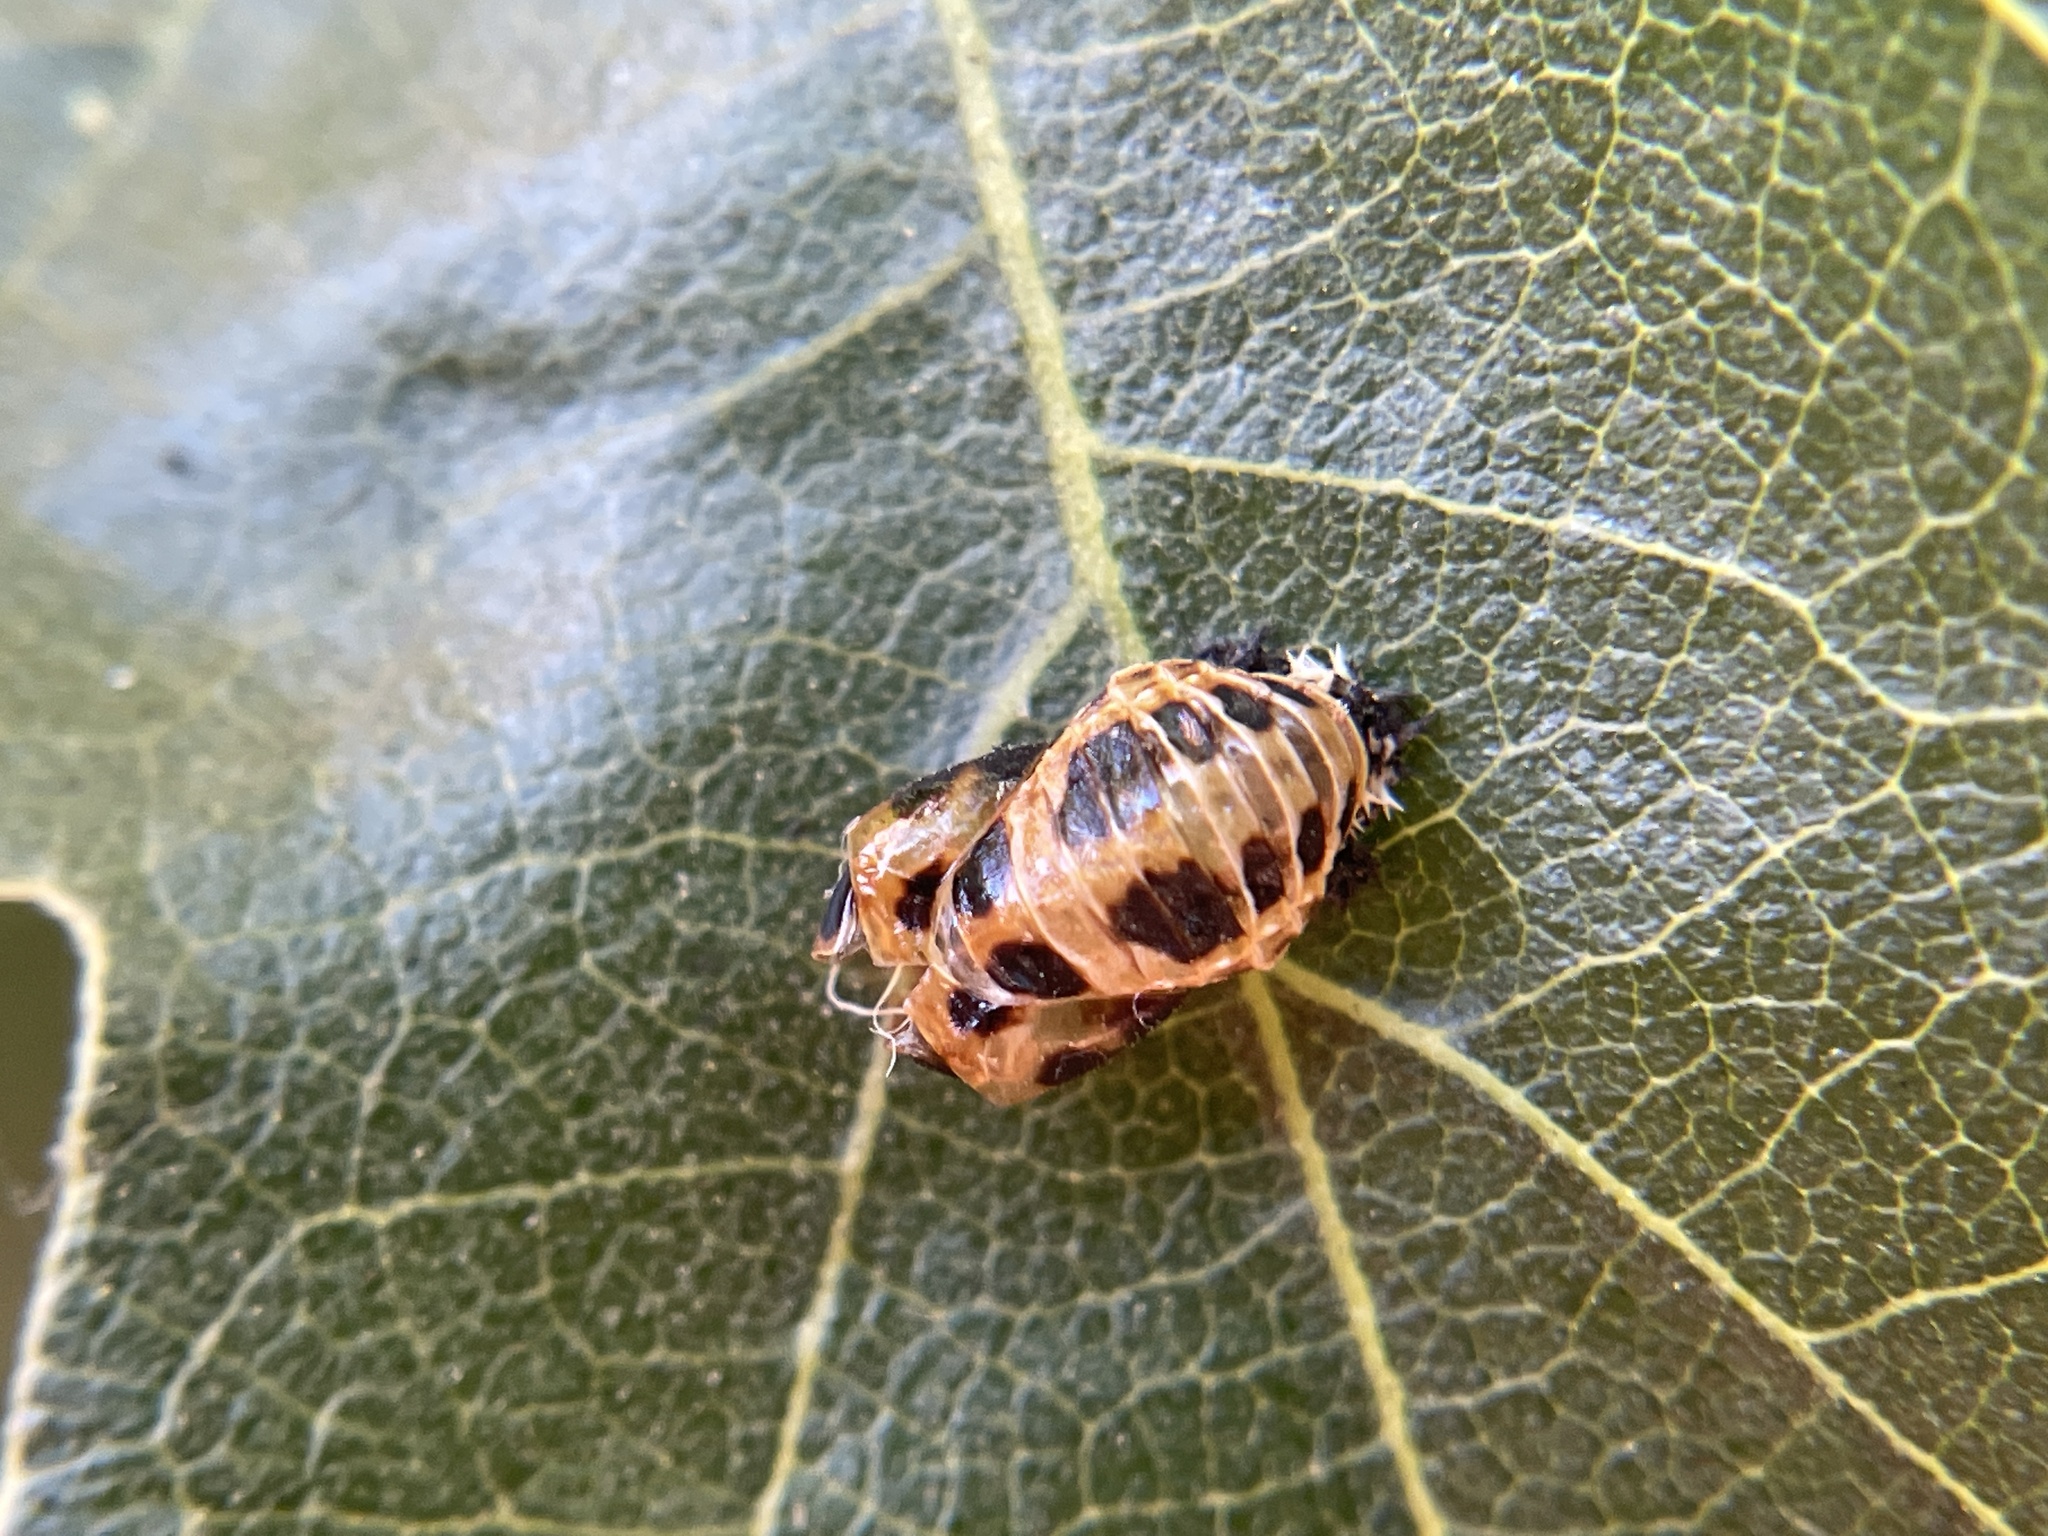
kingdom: Animalia
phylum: Arthropoda
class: Insecta
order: Coleoptera
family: Coccinellidae
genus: Harmonia
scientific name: Harmonia axyridis
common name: Harlequin ladybird
